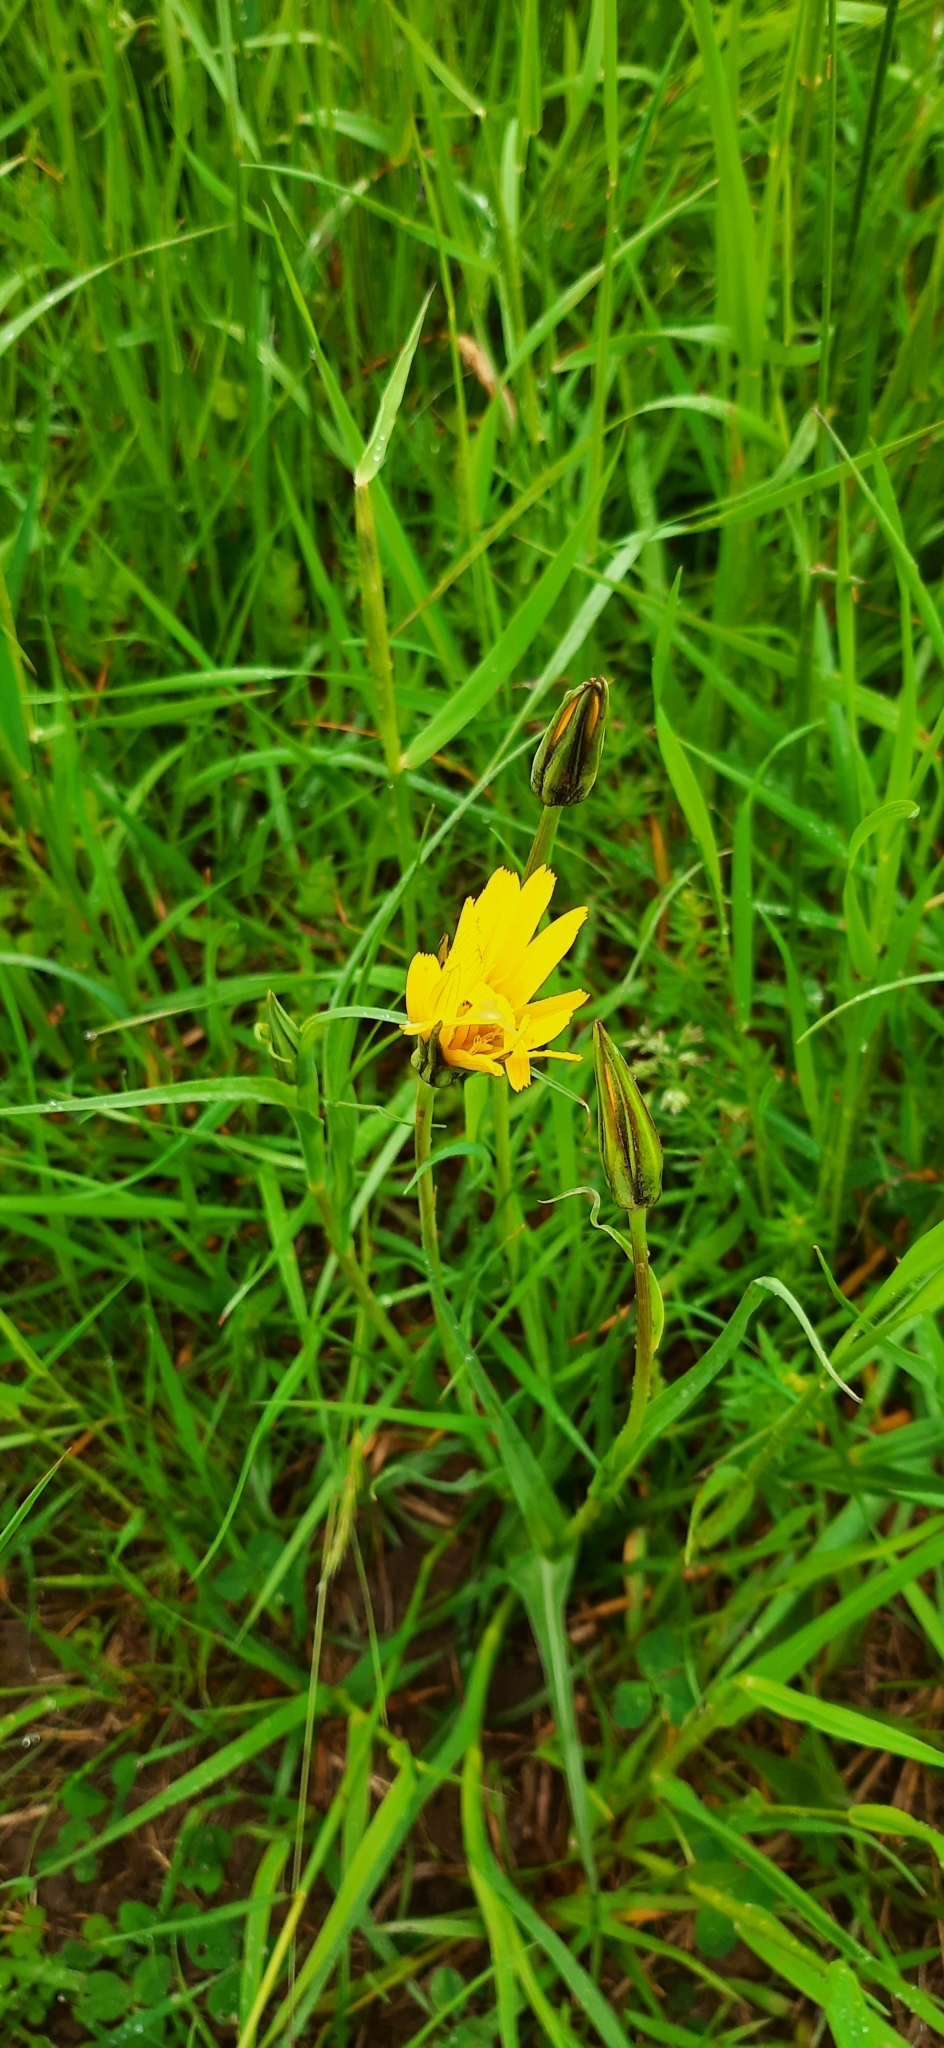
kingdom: Plantae
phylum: Tracheophyta
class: Magnoliopsida
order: Asterales
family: Asteraceae
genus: Tragopogon
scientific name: Tragopogon orientalis
